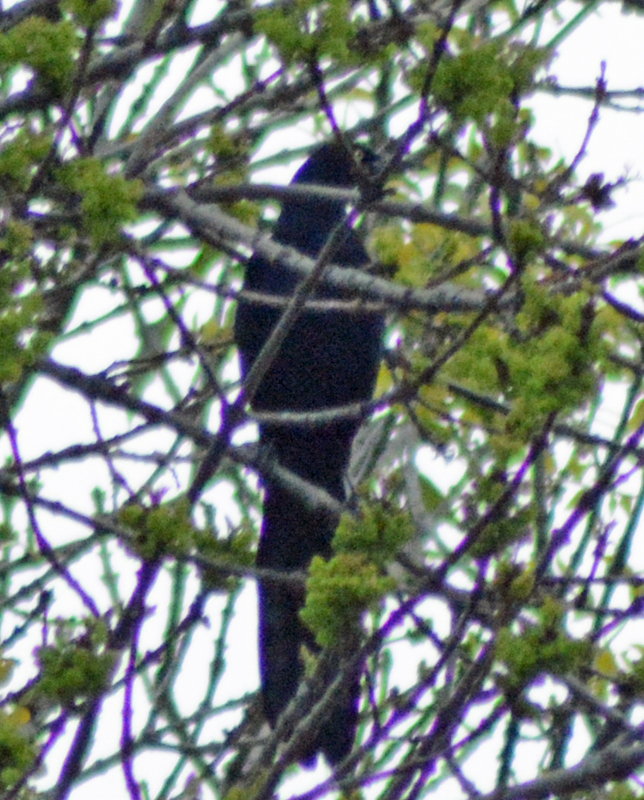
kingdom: Animalia
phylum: Chordata
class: Aves
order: Passeriformes
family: Icteridae
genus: Quiscalus
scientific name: Quiscalus mexicanus
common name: Great-tailed grackle
